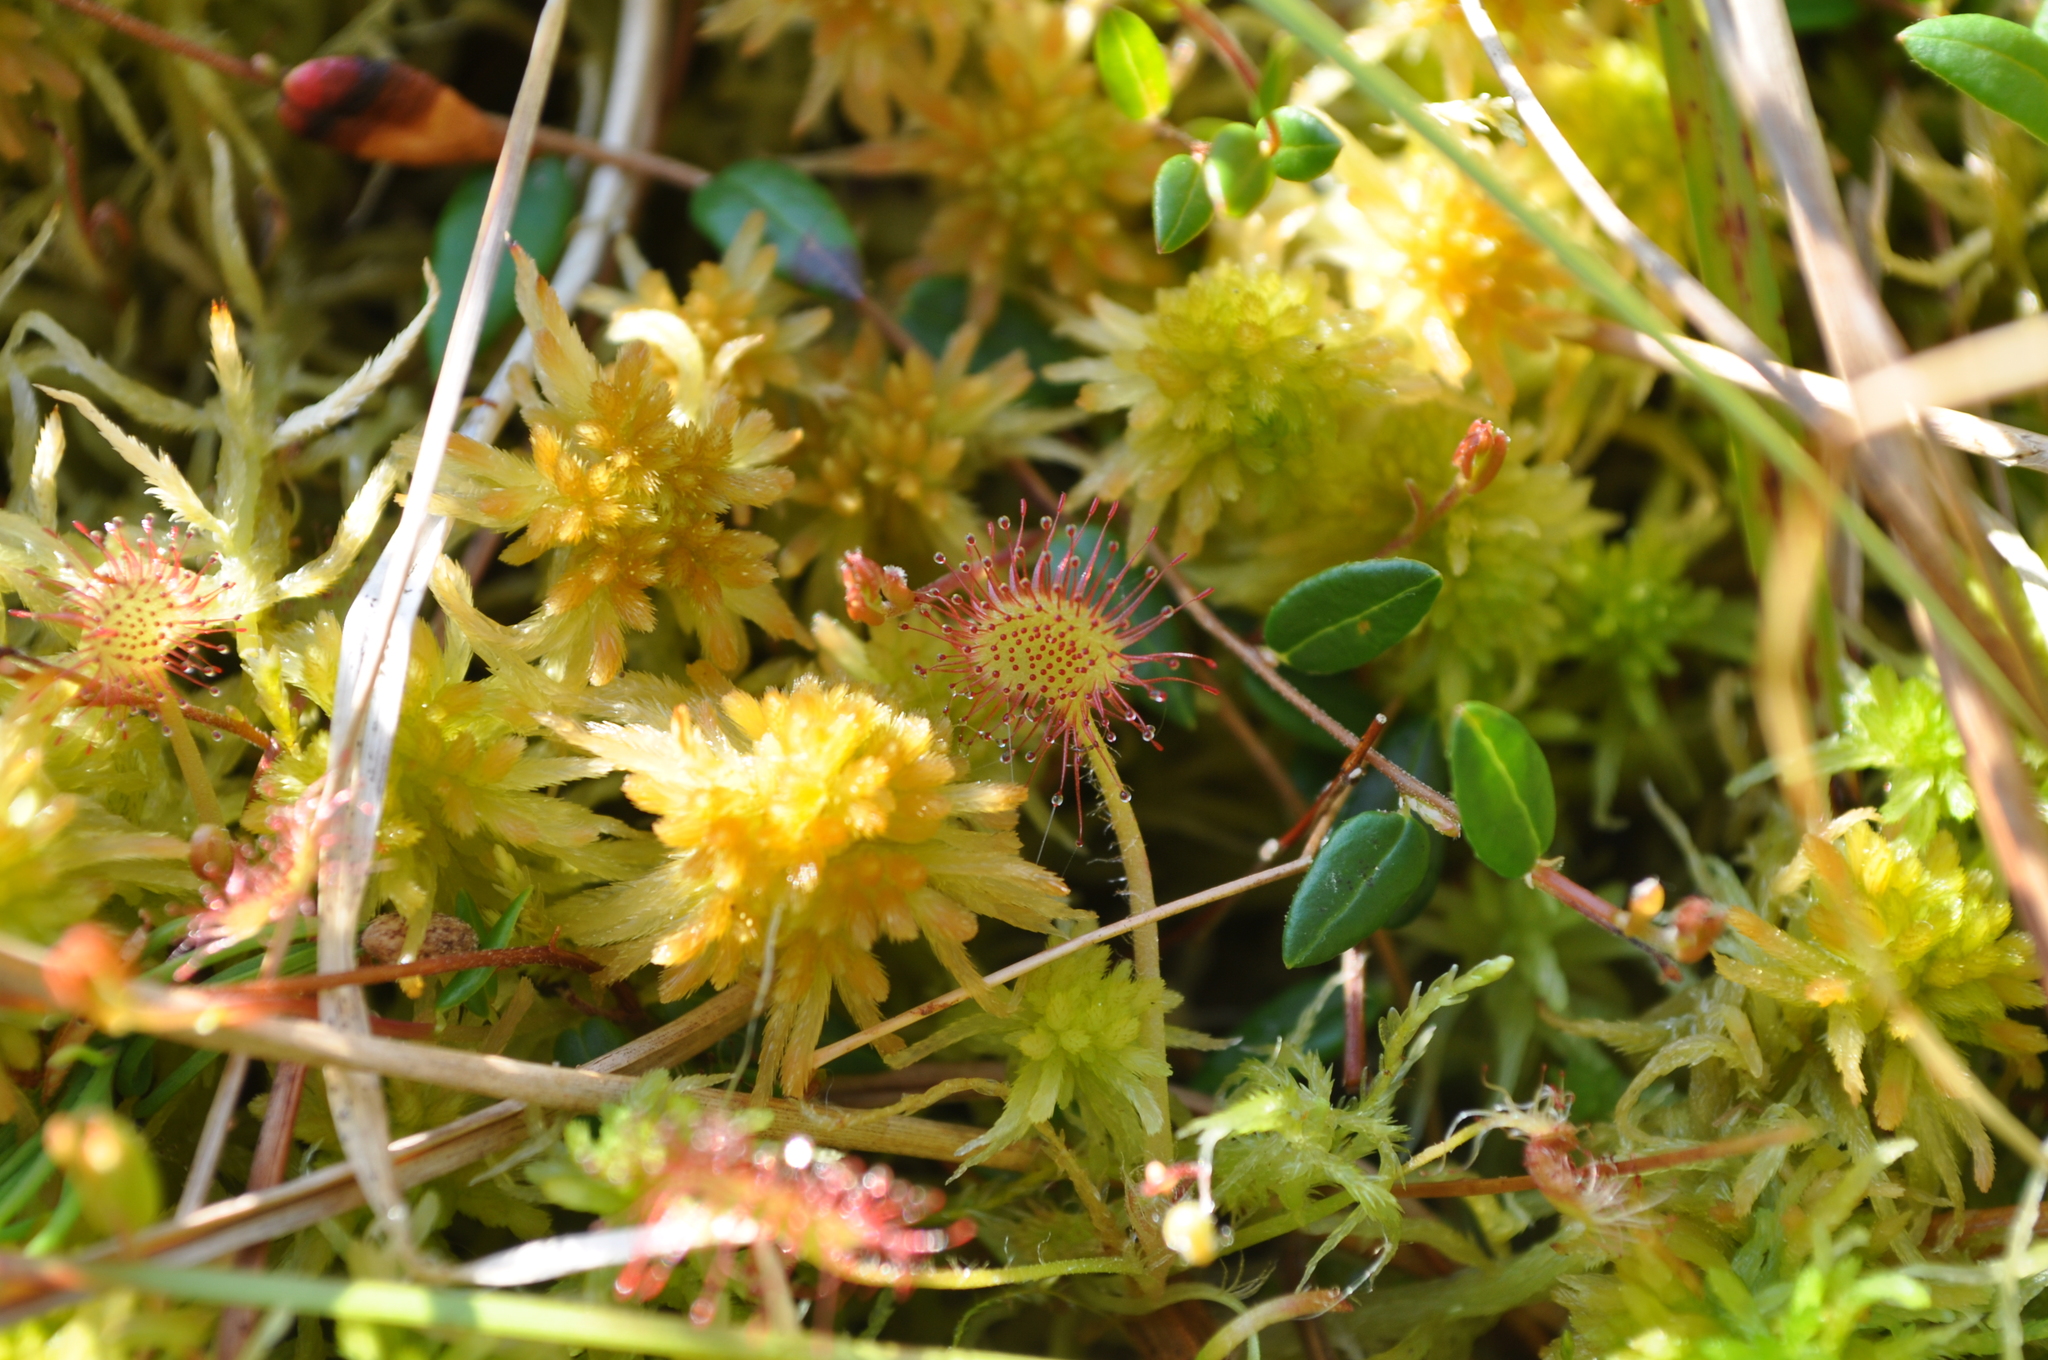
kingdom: Plantae
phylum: Tracheophyta
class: Magnoliopsida
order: Caryophyllales
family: Droseraceae
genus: Drosera
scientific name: Drosera rotundifolia
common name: Round-leaved sundew
